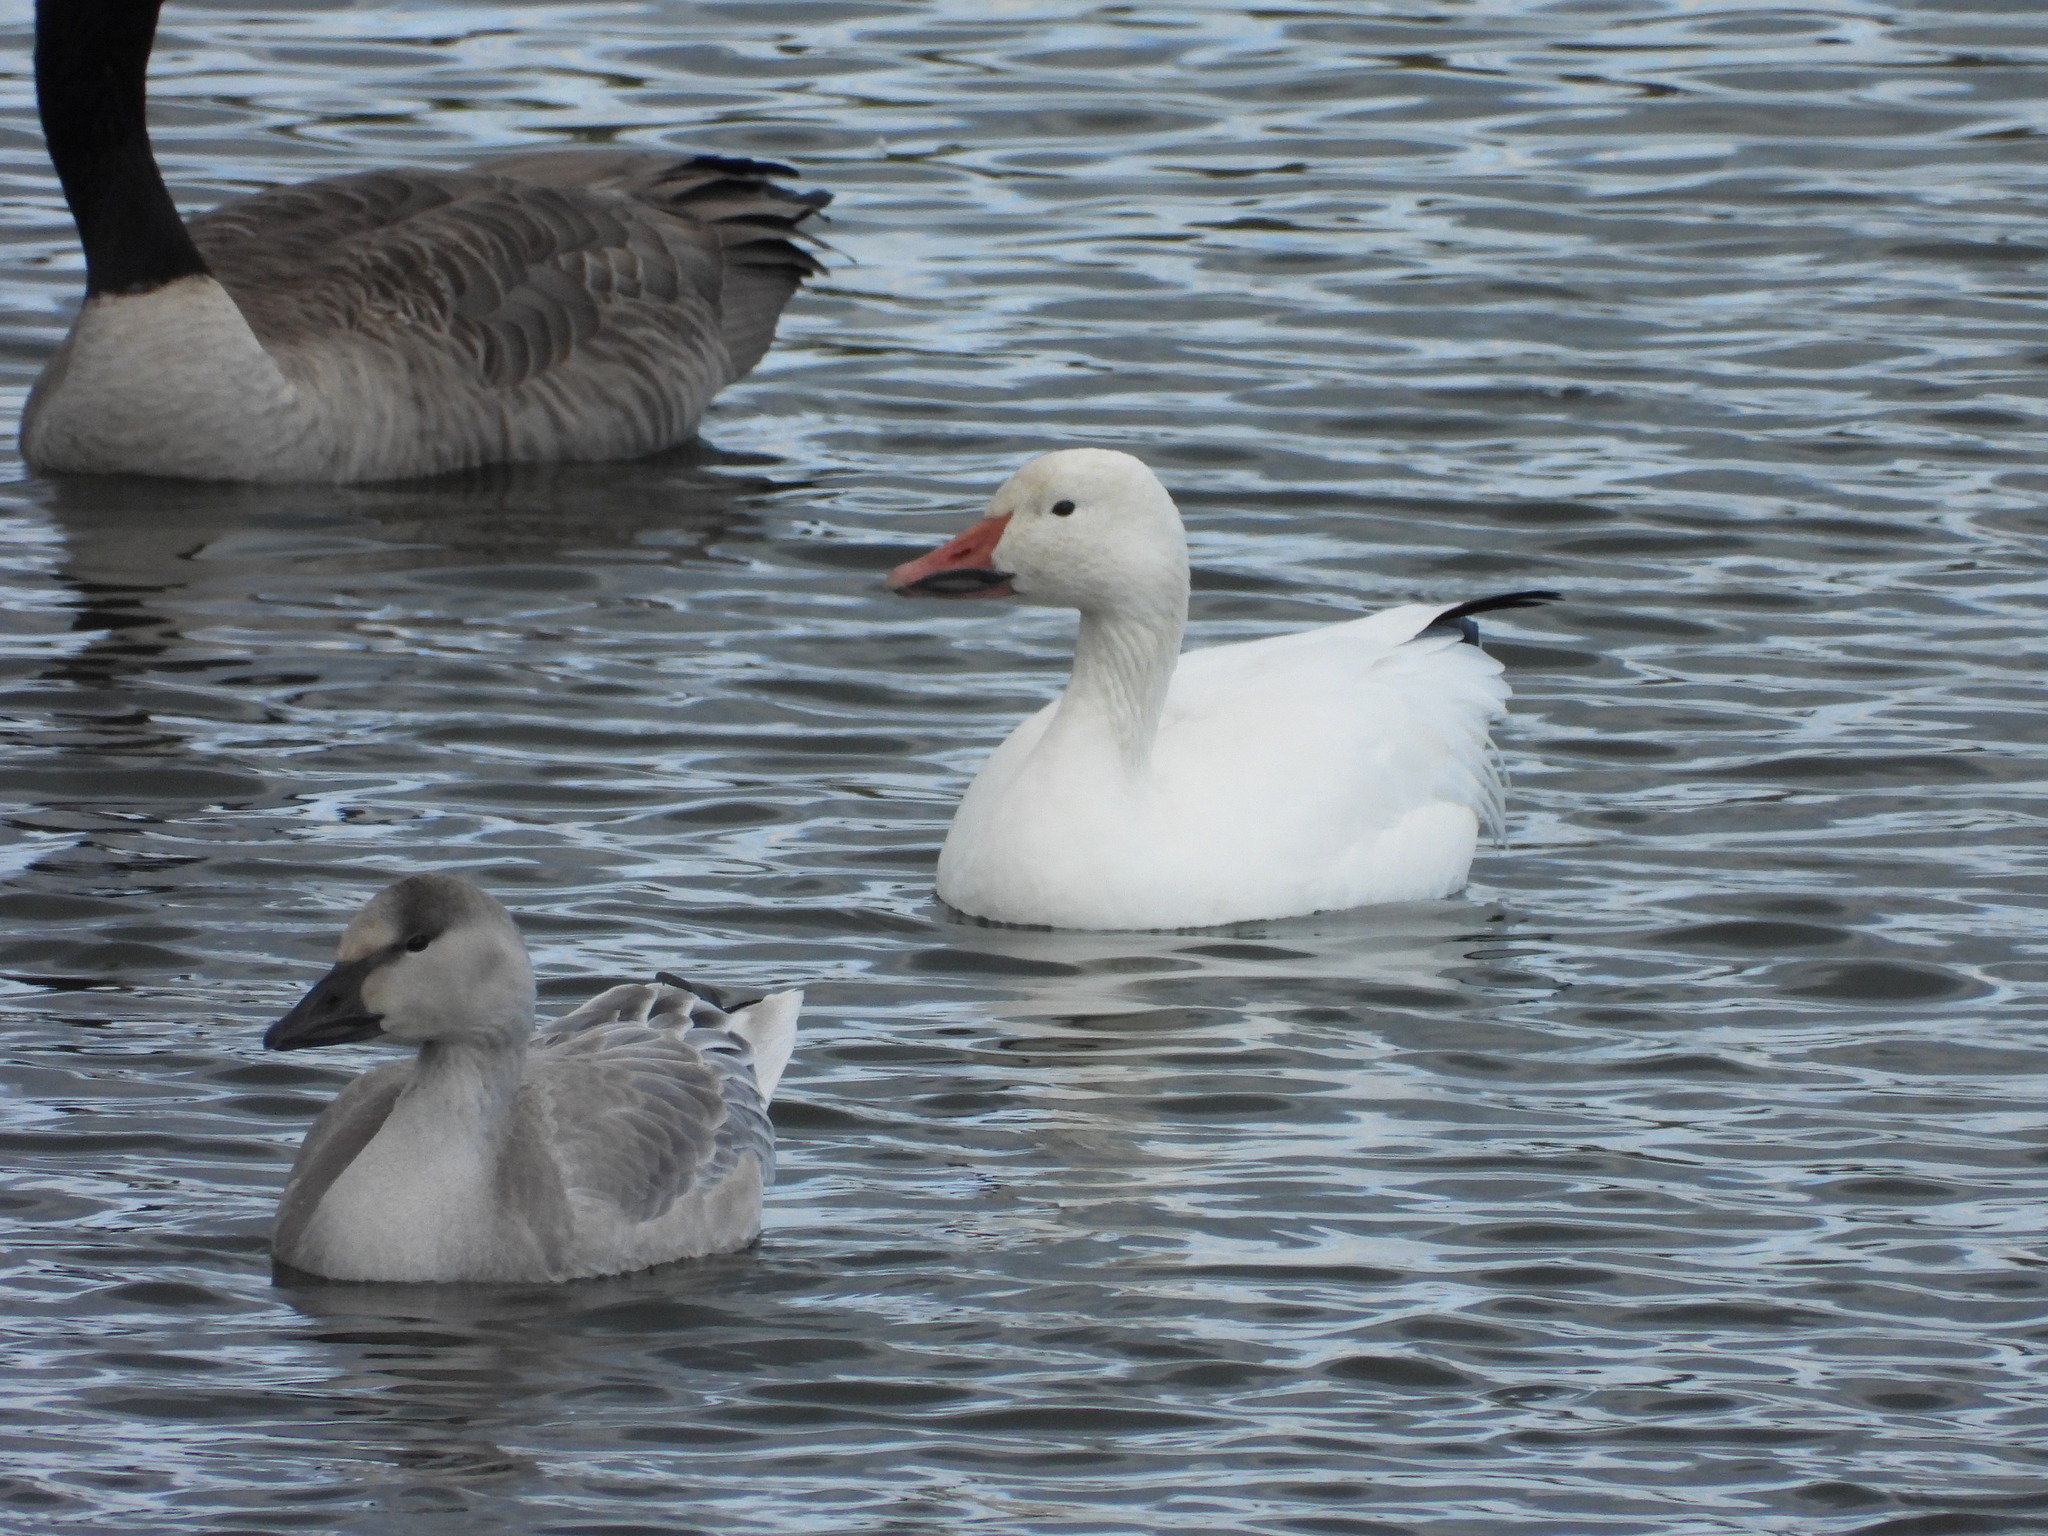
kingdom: Animalia
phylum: Chordata
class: Aves
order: Anseriformes
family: Anatidae
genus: Anser
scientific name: Anser caerulescens
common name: Snow goose
